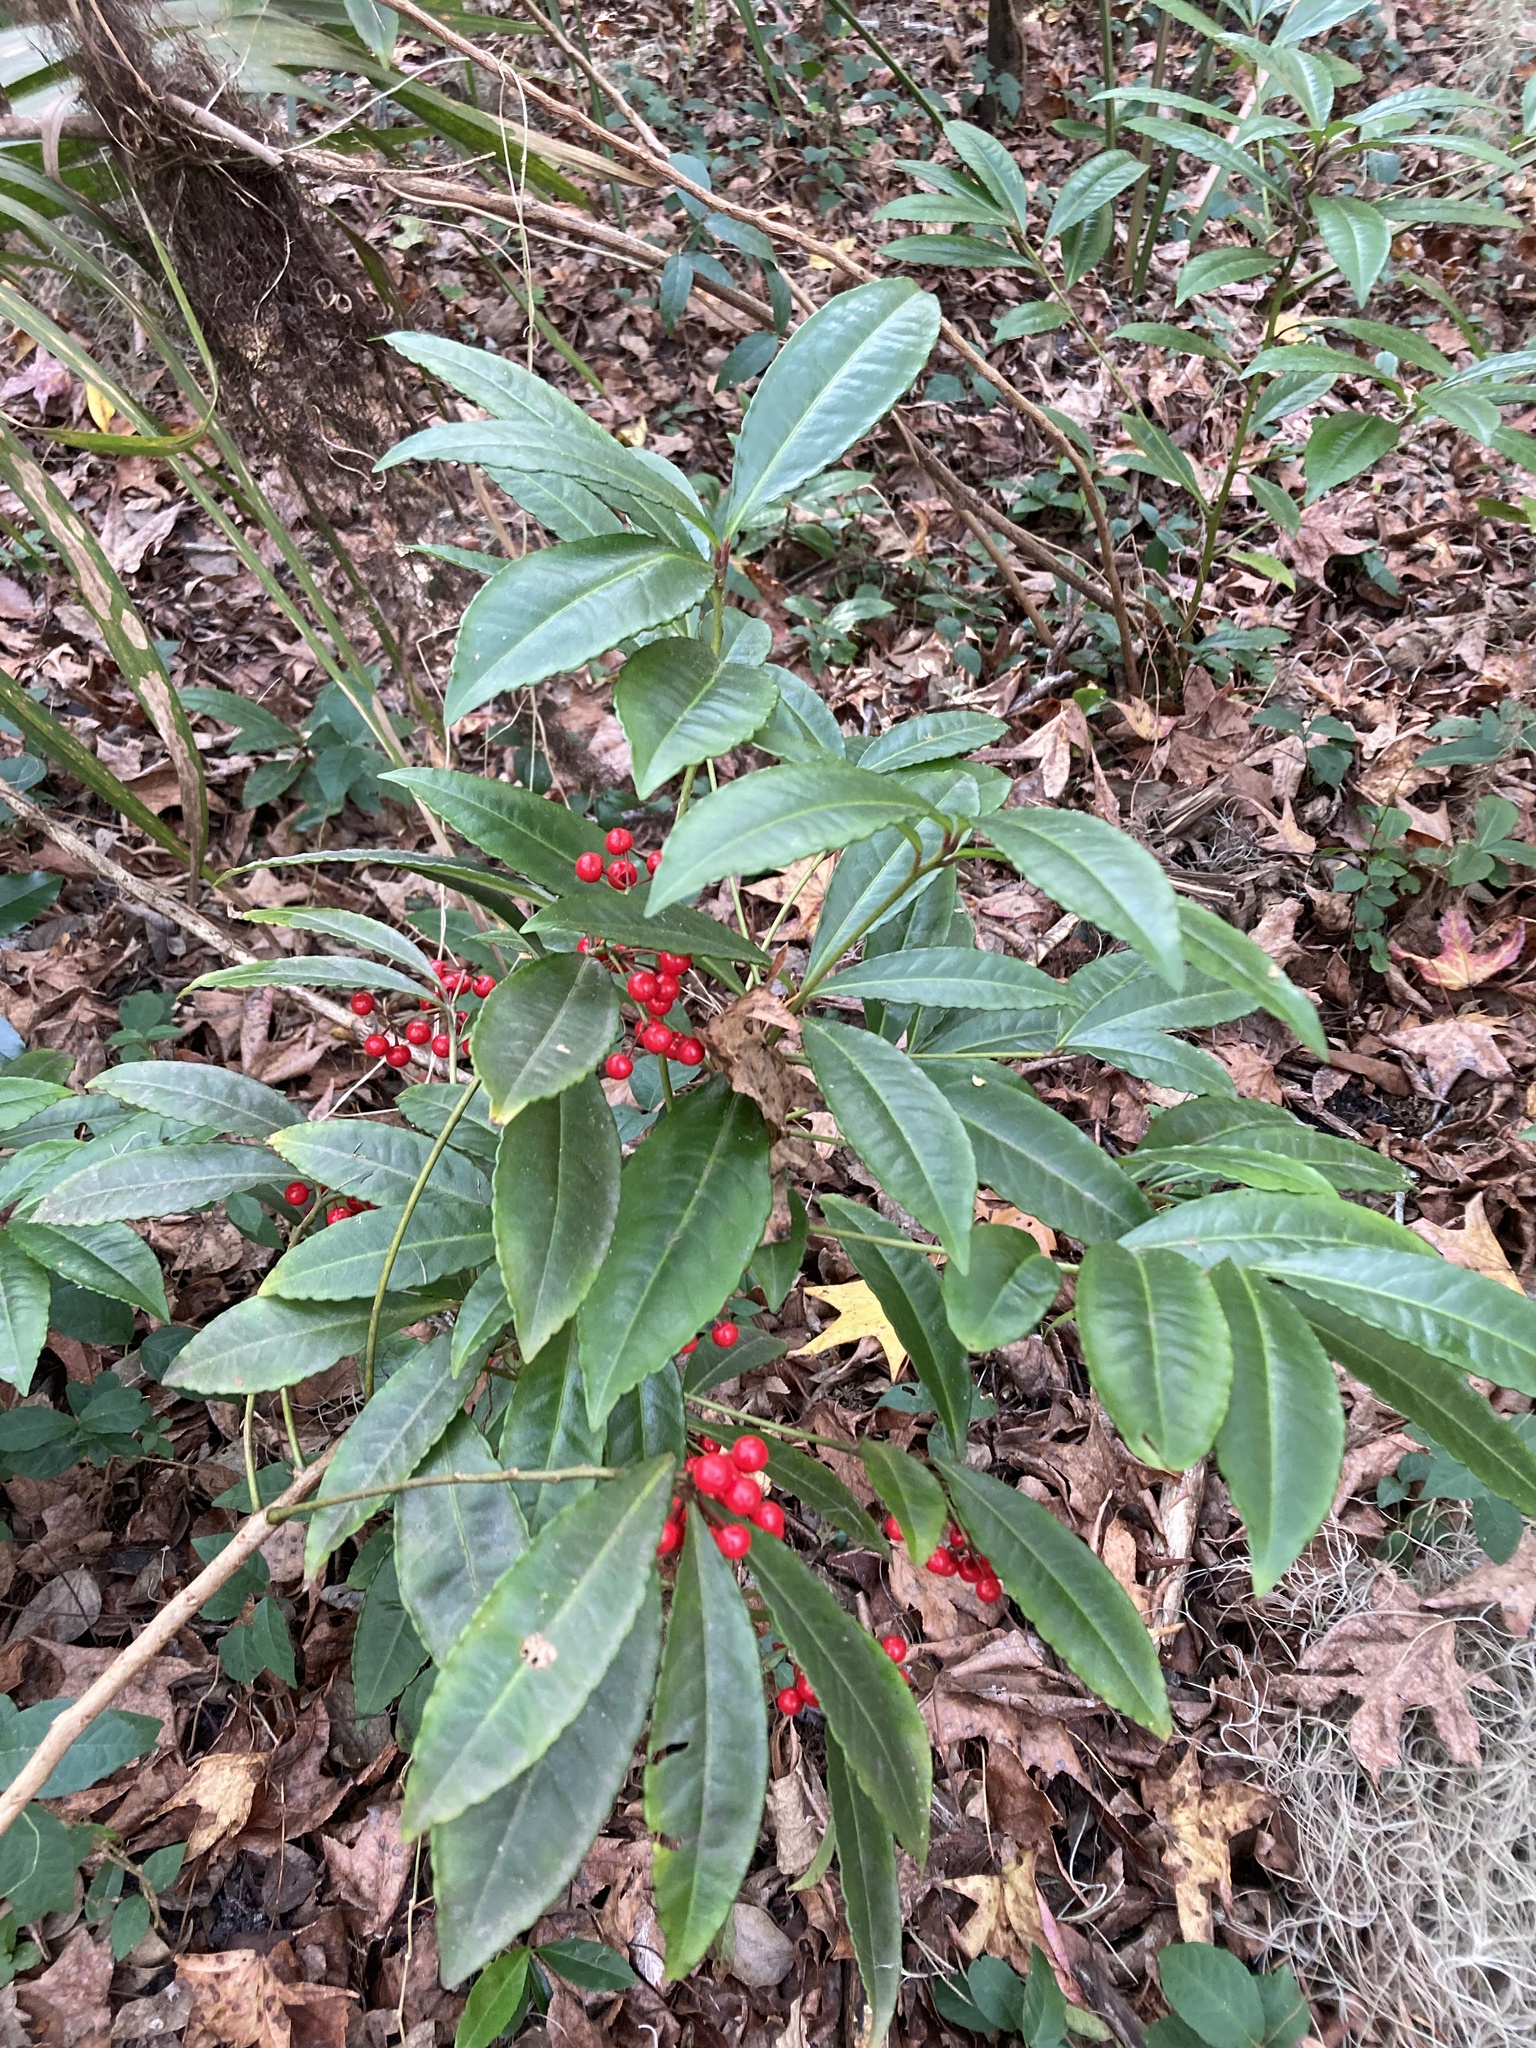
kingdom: Plantae
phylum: Tracheophyta
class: Magnoliopsida
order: Ericales
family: Primulaceae
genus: Ardisia
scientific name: Ardisia crenata
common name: Hen's eyes
